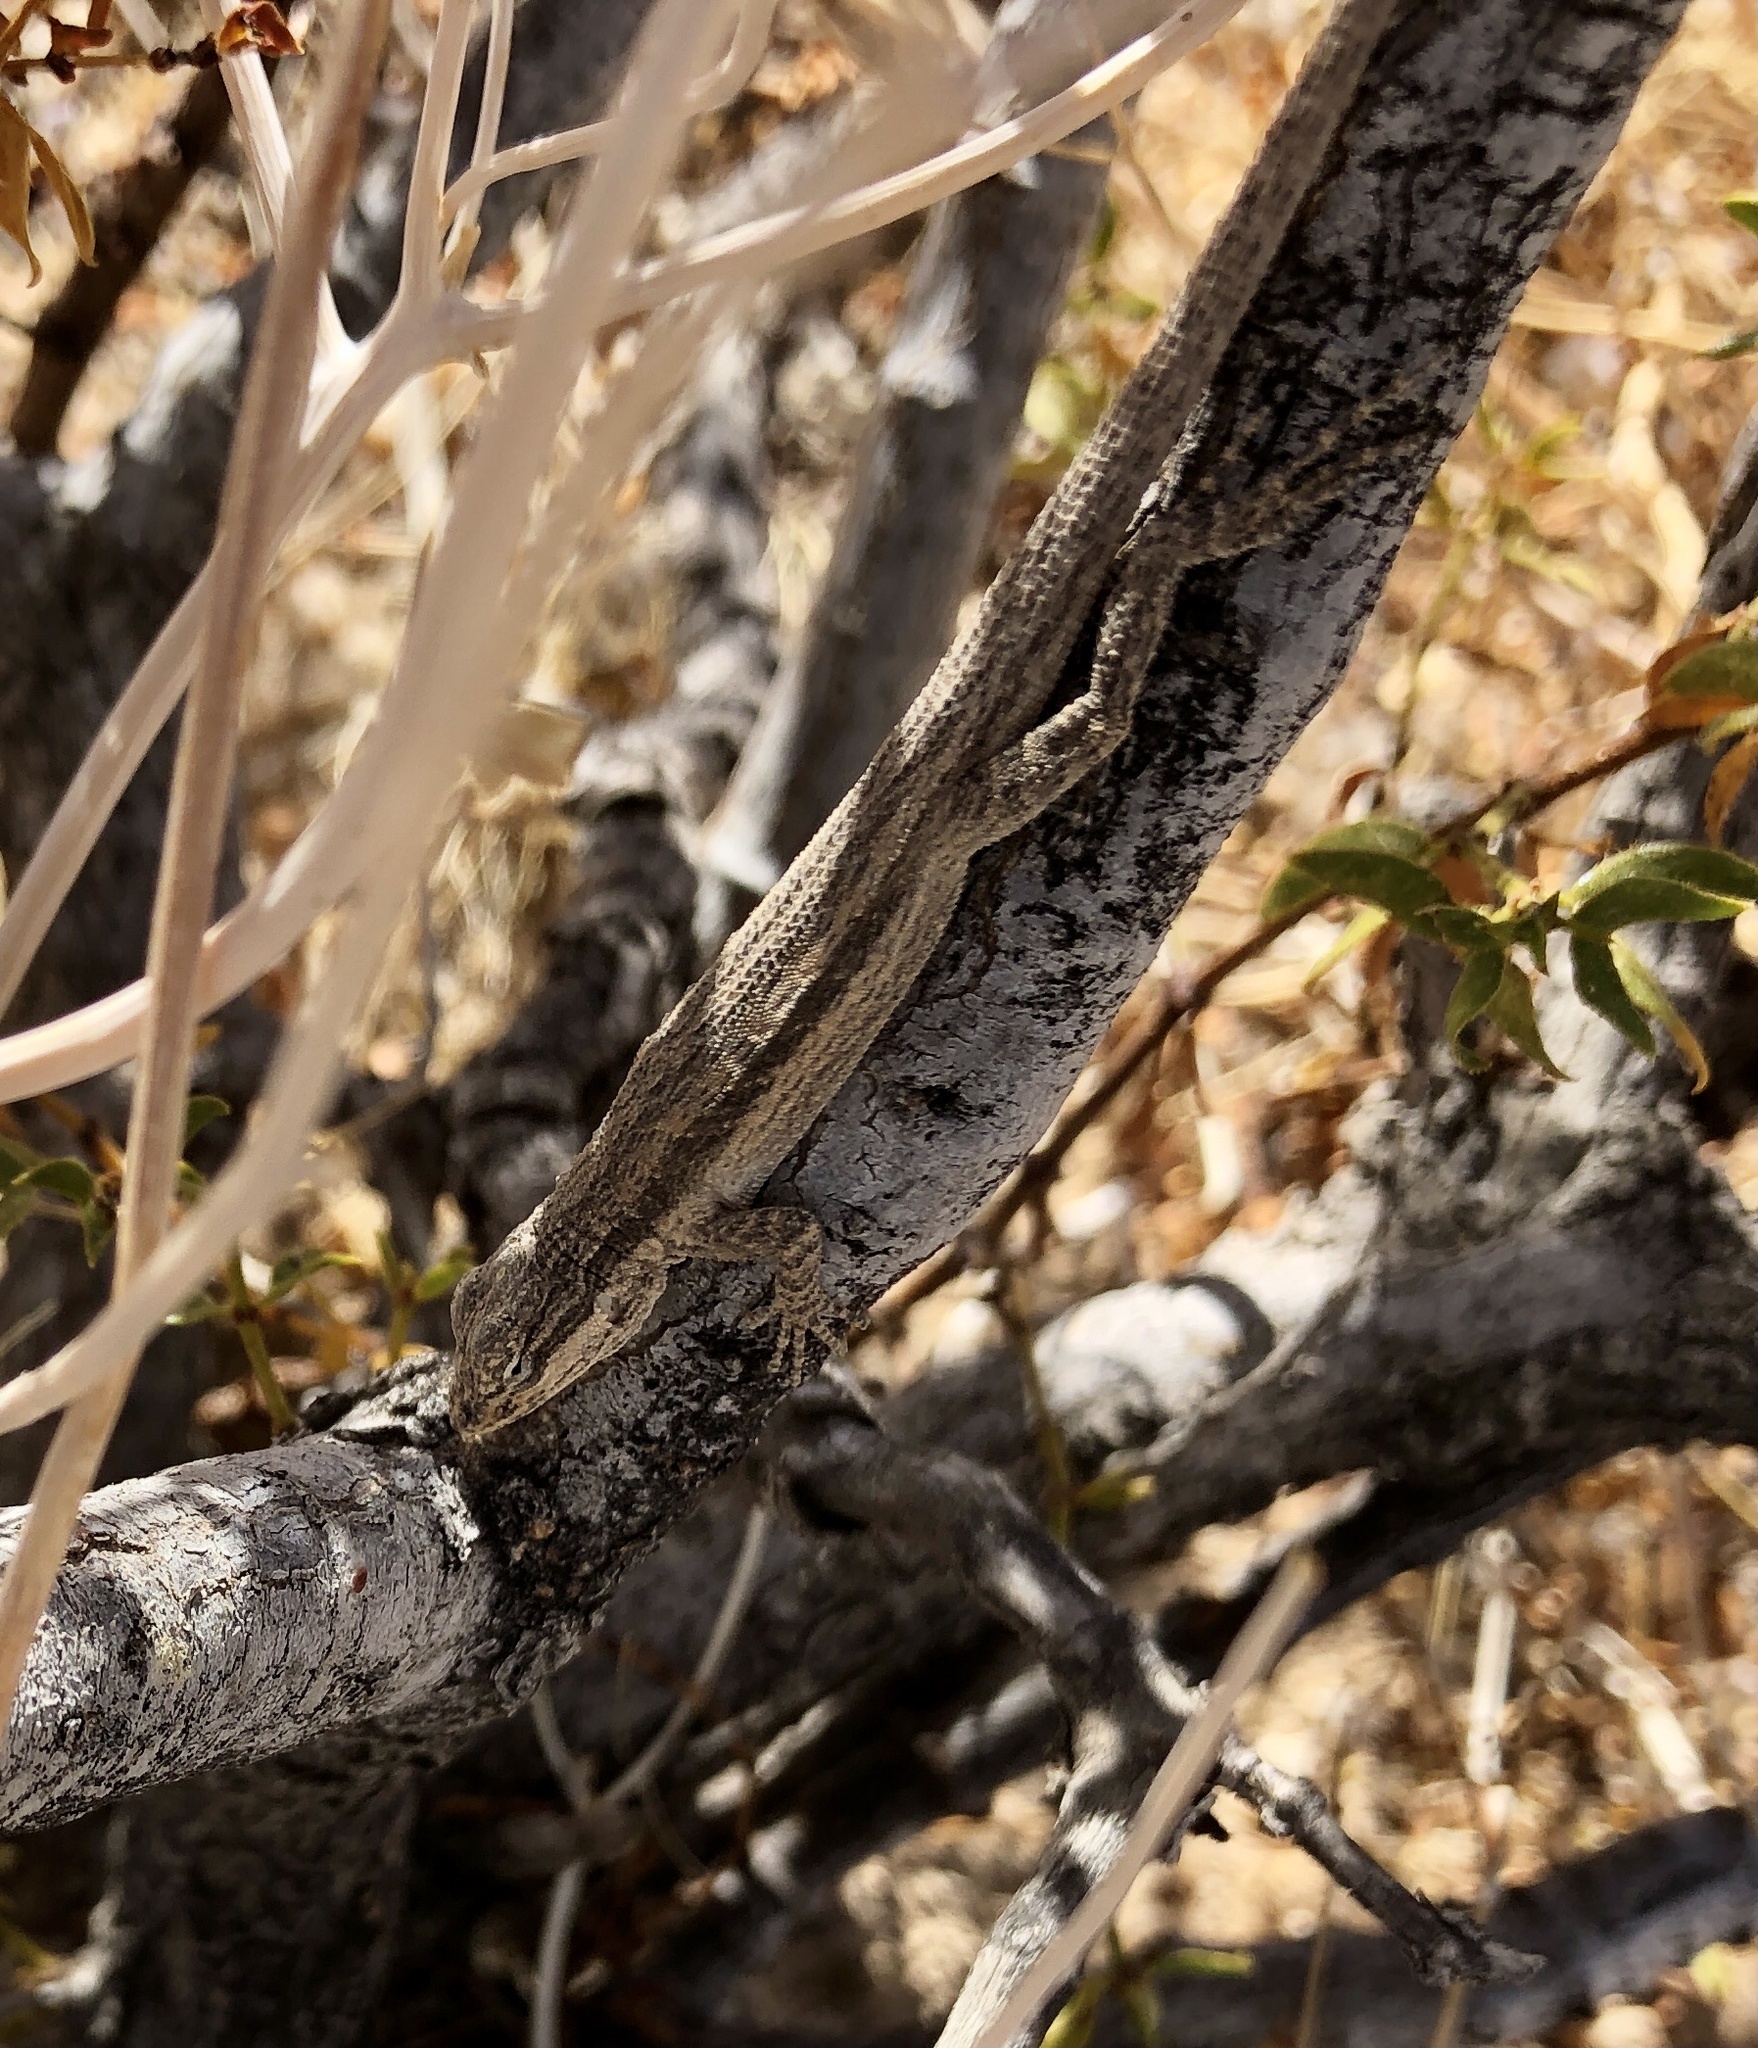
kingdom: Animalia
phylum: Chordata
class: Squamata
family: Phrynosomatidae
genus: Urosaurus
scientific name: Urosaurus graciosus
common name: Long-tailed brush lizard
